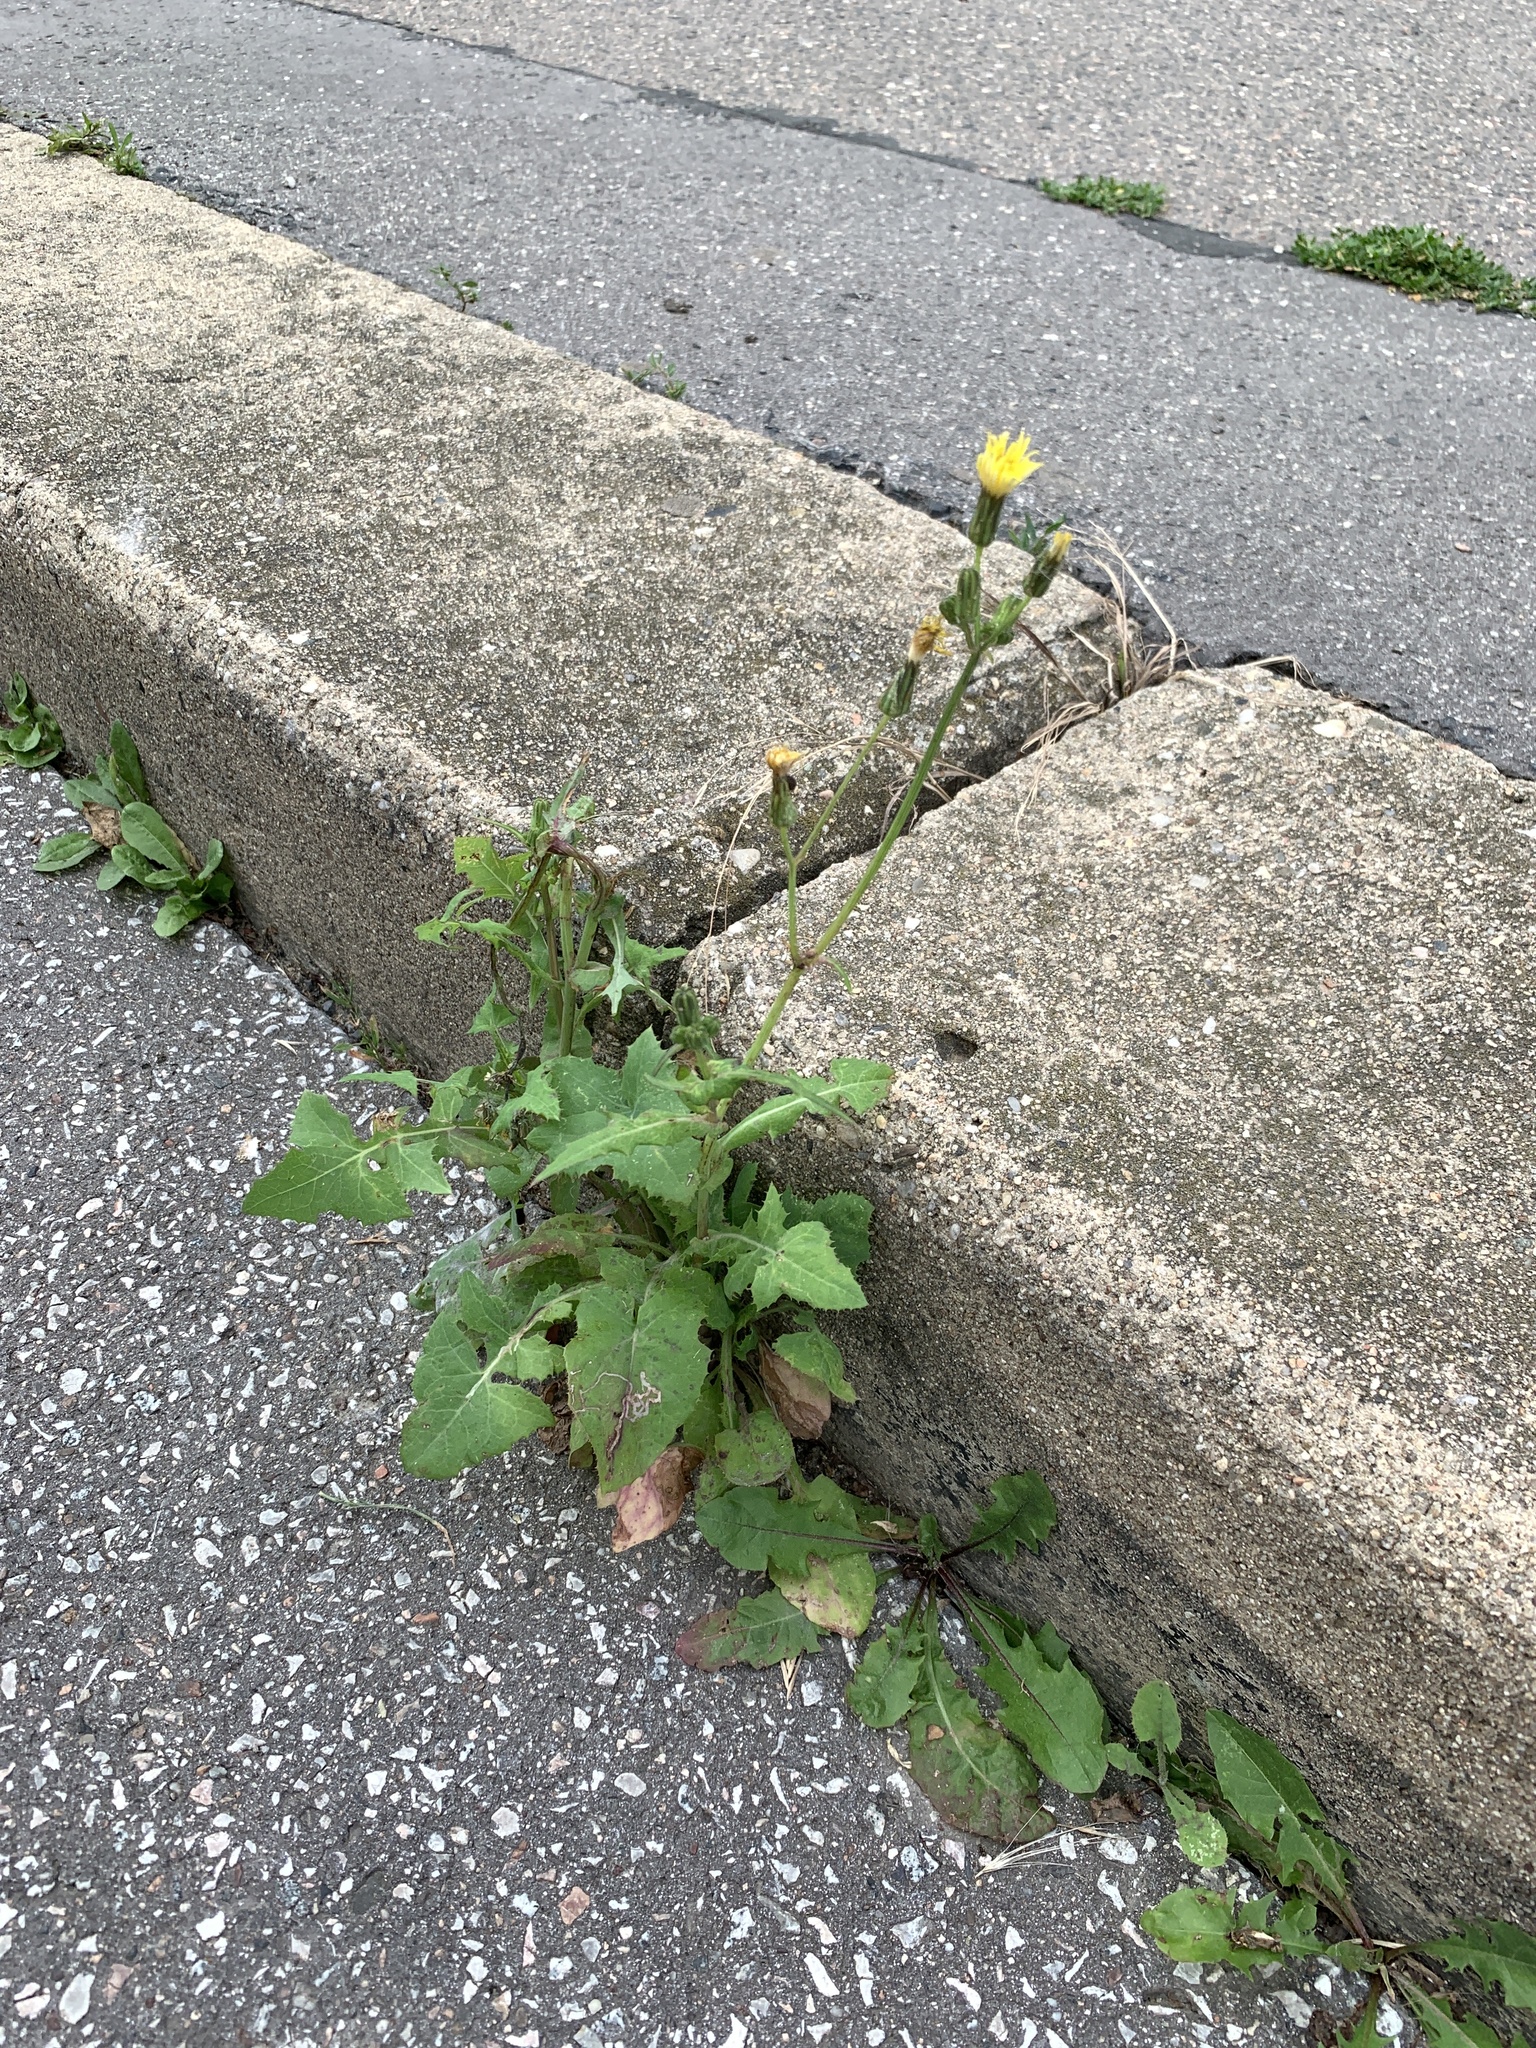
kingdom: Plantae
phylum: Tracheophyta
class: Magnoliopsida
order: Asterales
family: Asteraceae
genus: Sonchus
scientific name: Sonchus oleraceus
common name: Common sowthistle
